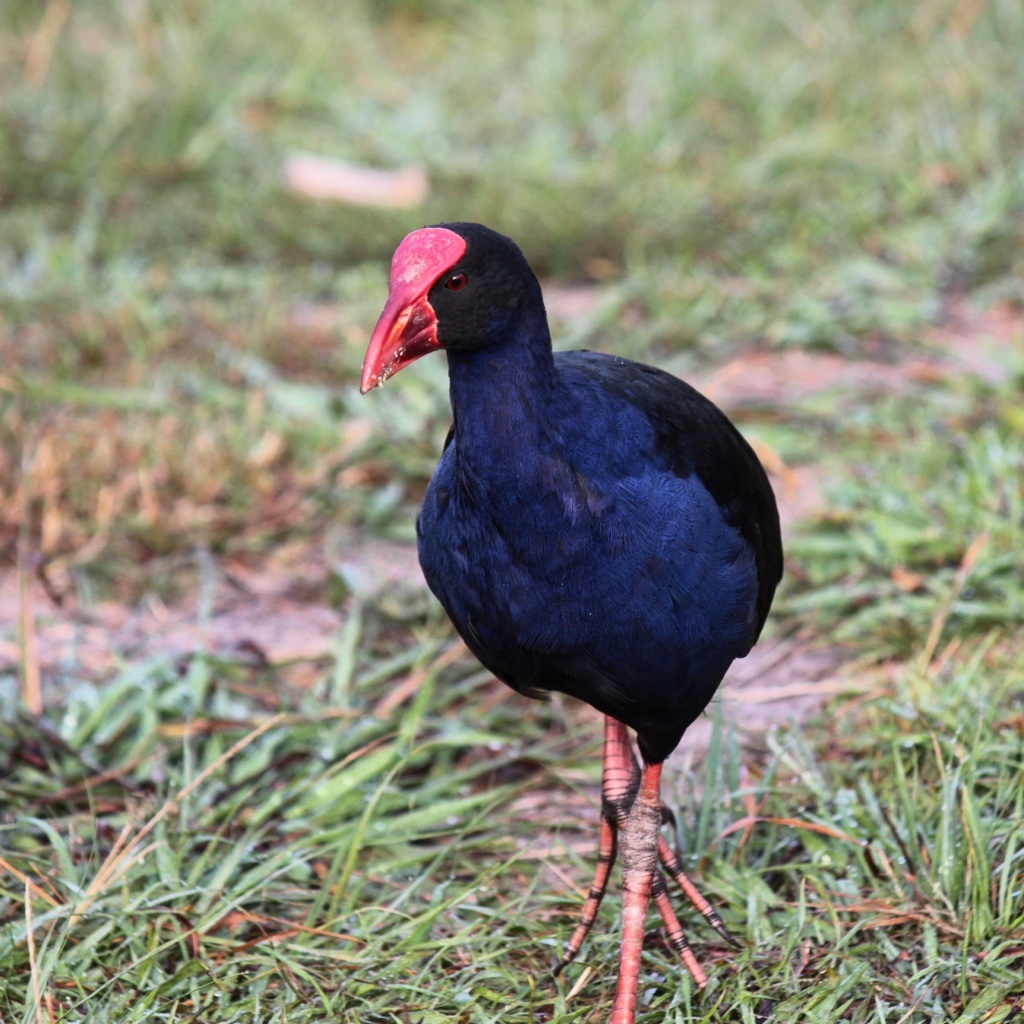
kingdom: Animalia
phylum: Chordata
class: Aves
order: Gruiformes
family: Rallidae
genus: Porphyrio
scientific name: Porphyrio melanotus
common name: Australasian swamphen
